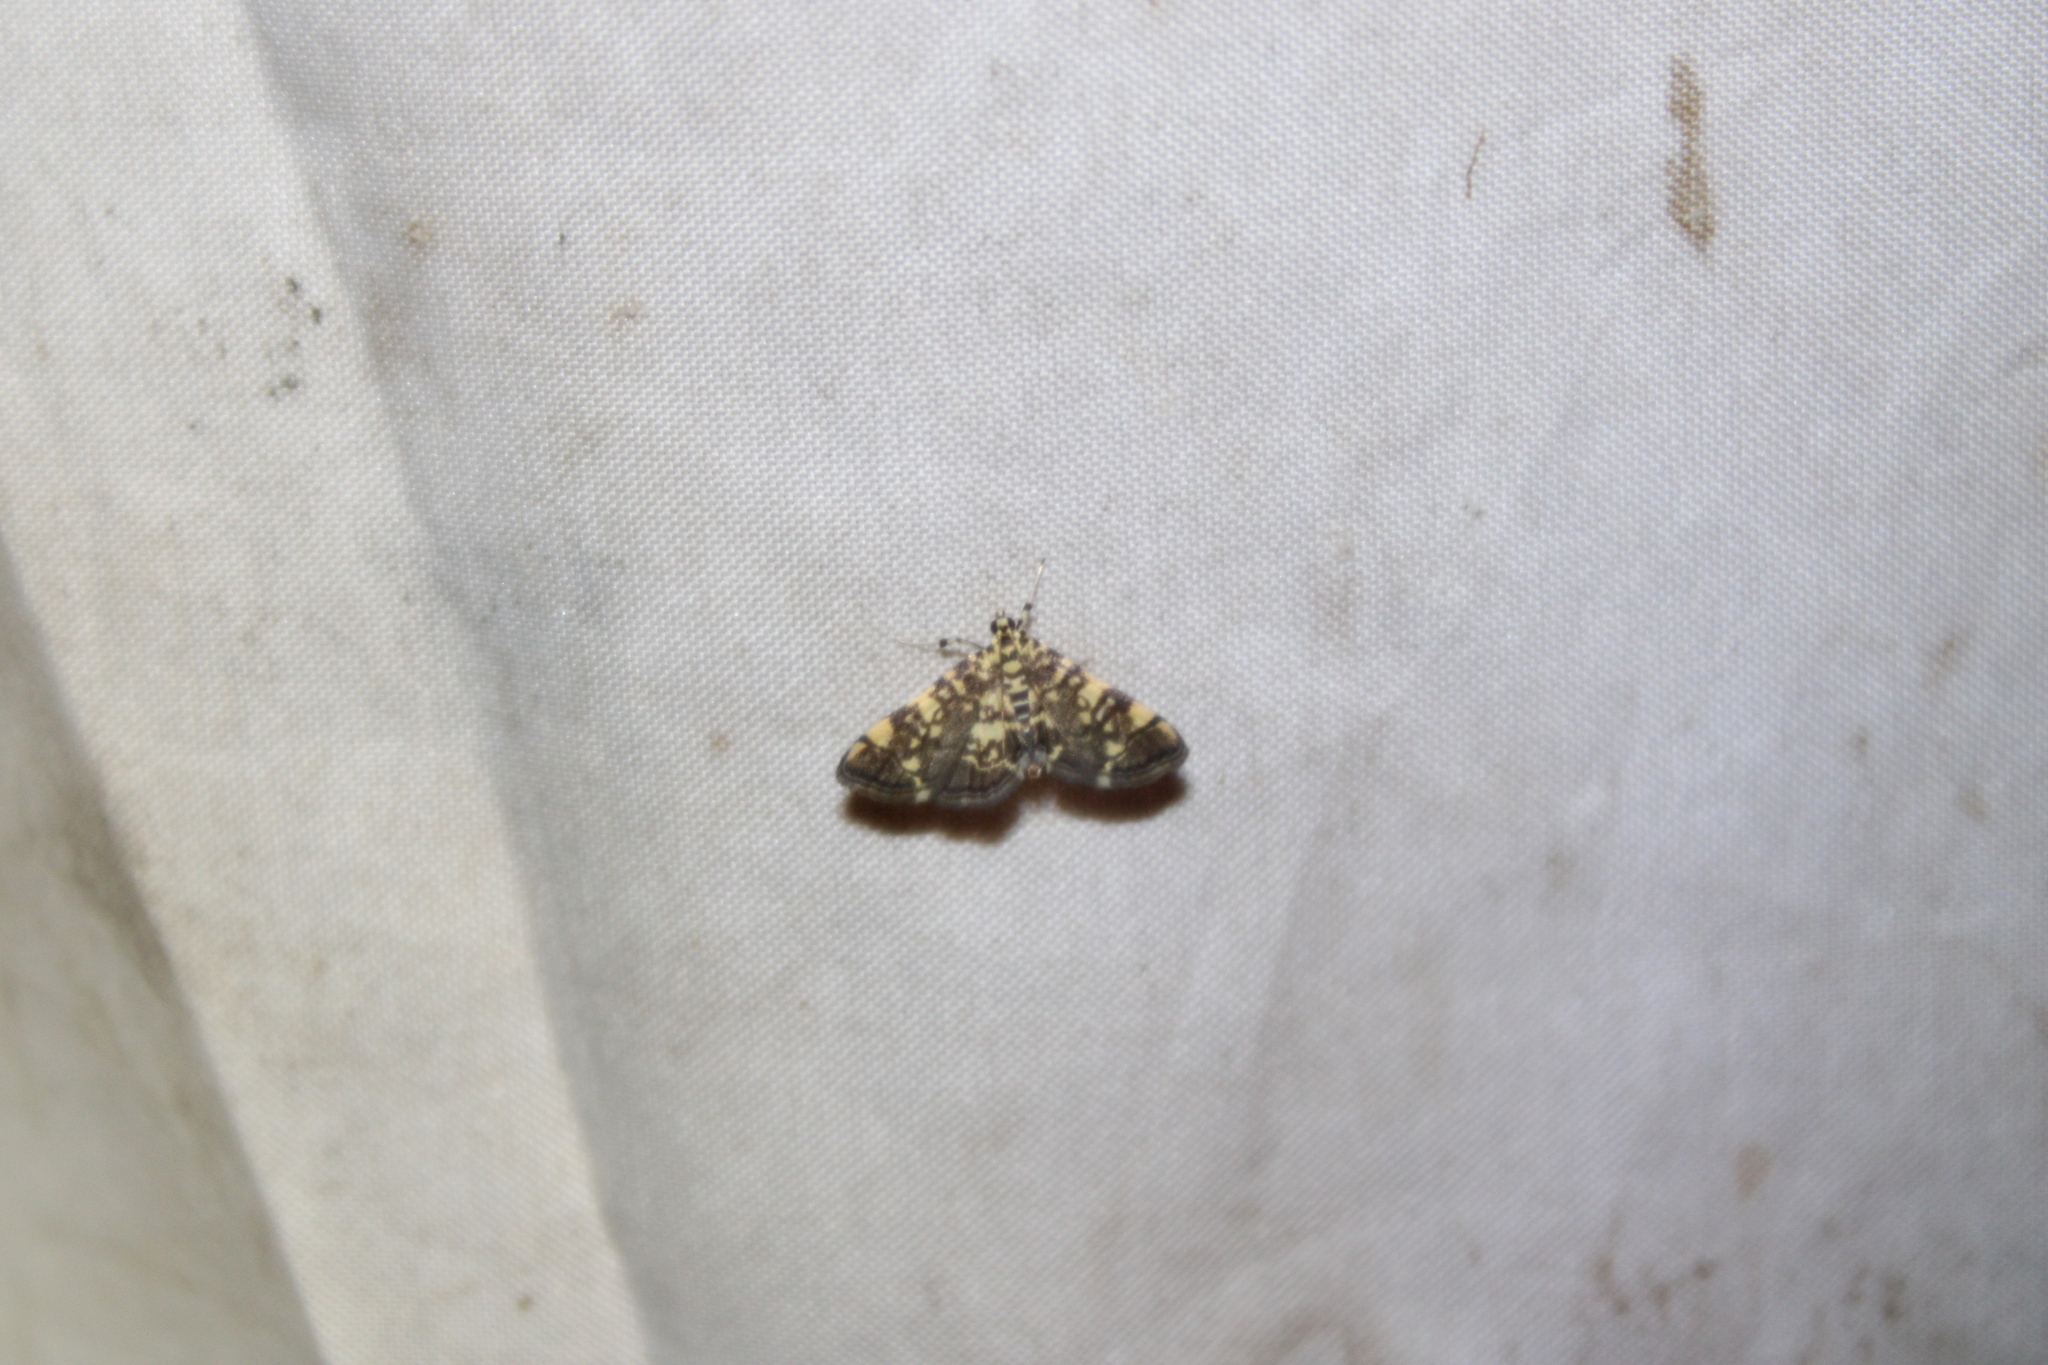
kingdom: Animalia
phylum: Arthropoda
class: Insecta
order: Lepidoptera
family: Crambidae
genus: Apogeshna
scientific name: Apogeshna stenialis
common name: Checkered apogeshna moth
